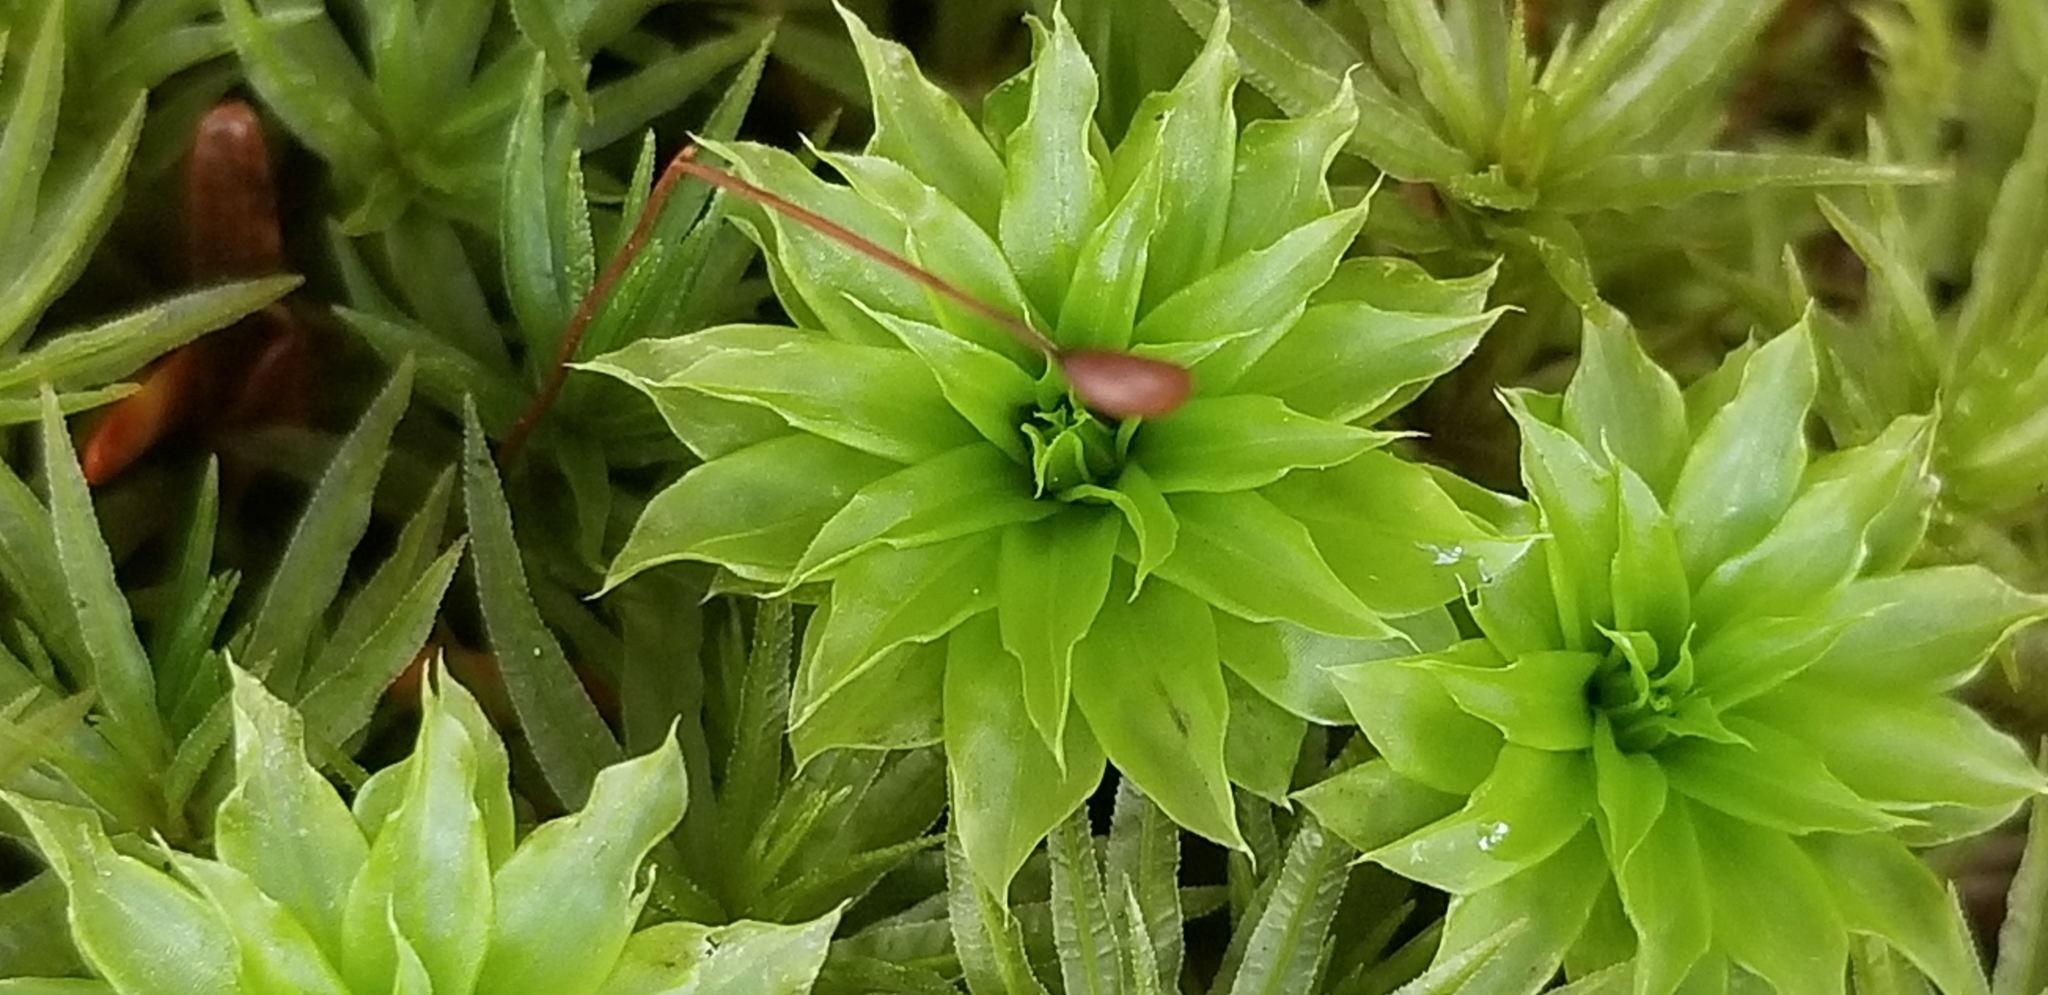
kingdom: Plantae
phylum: Bryophyta
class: Bryopsida
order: Bryales
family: Bryaceae
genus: Rhodobryum
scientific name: Rhodobryum ontariense
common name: Ontario rhodobryum moss
